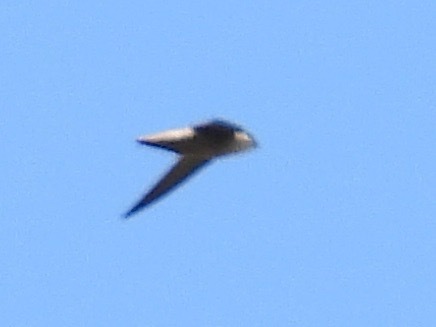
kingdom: Animalia
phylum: Chordata
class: Aves
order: Apodiformes
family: Apodidae
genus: Chaetura
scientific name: Chaetura vauxi
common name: Vaux's swift
